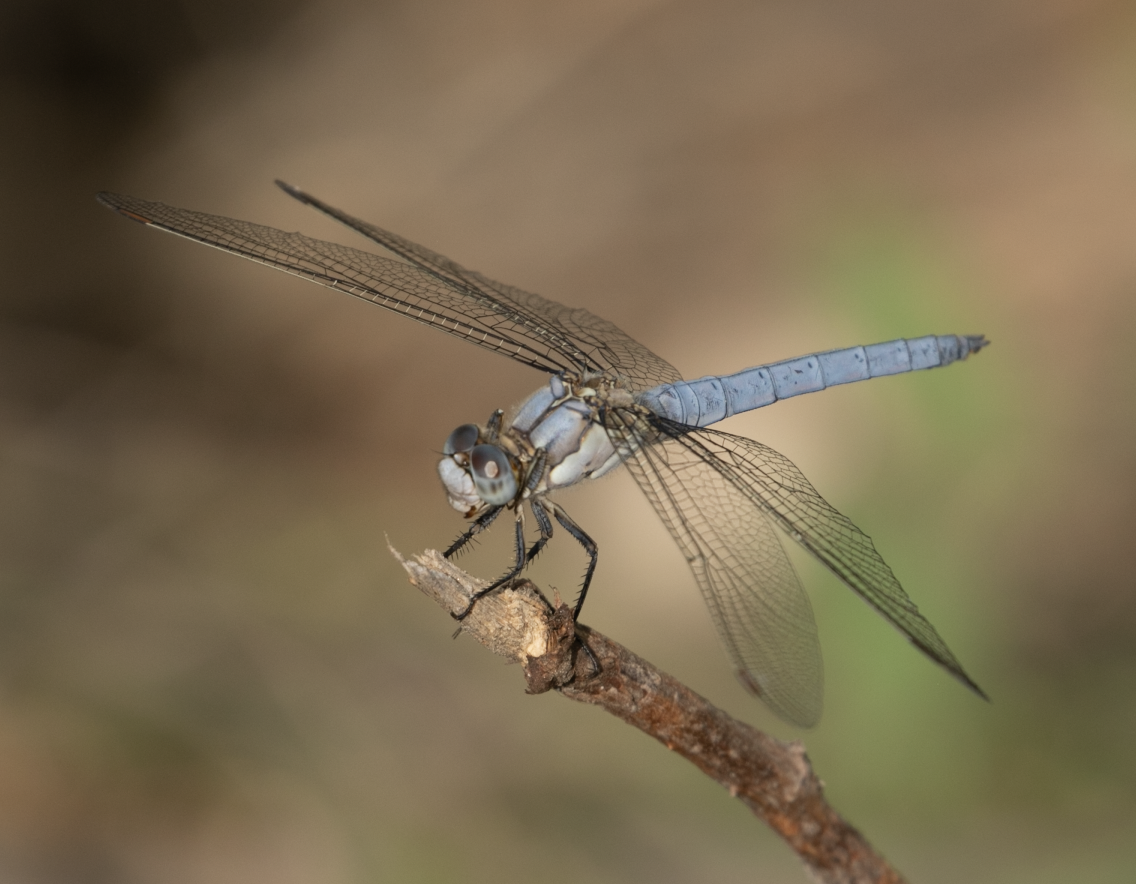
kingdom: Animalia
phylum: Arthropoda
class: Insecta
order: Odonata
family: Libellulidae
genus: Orthetrum
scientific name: Orthetrum brunneum
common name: Southern skimmer
